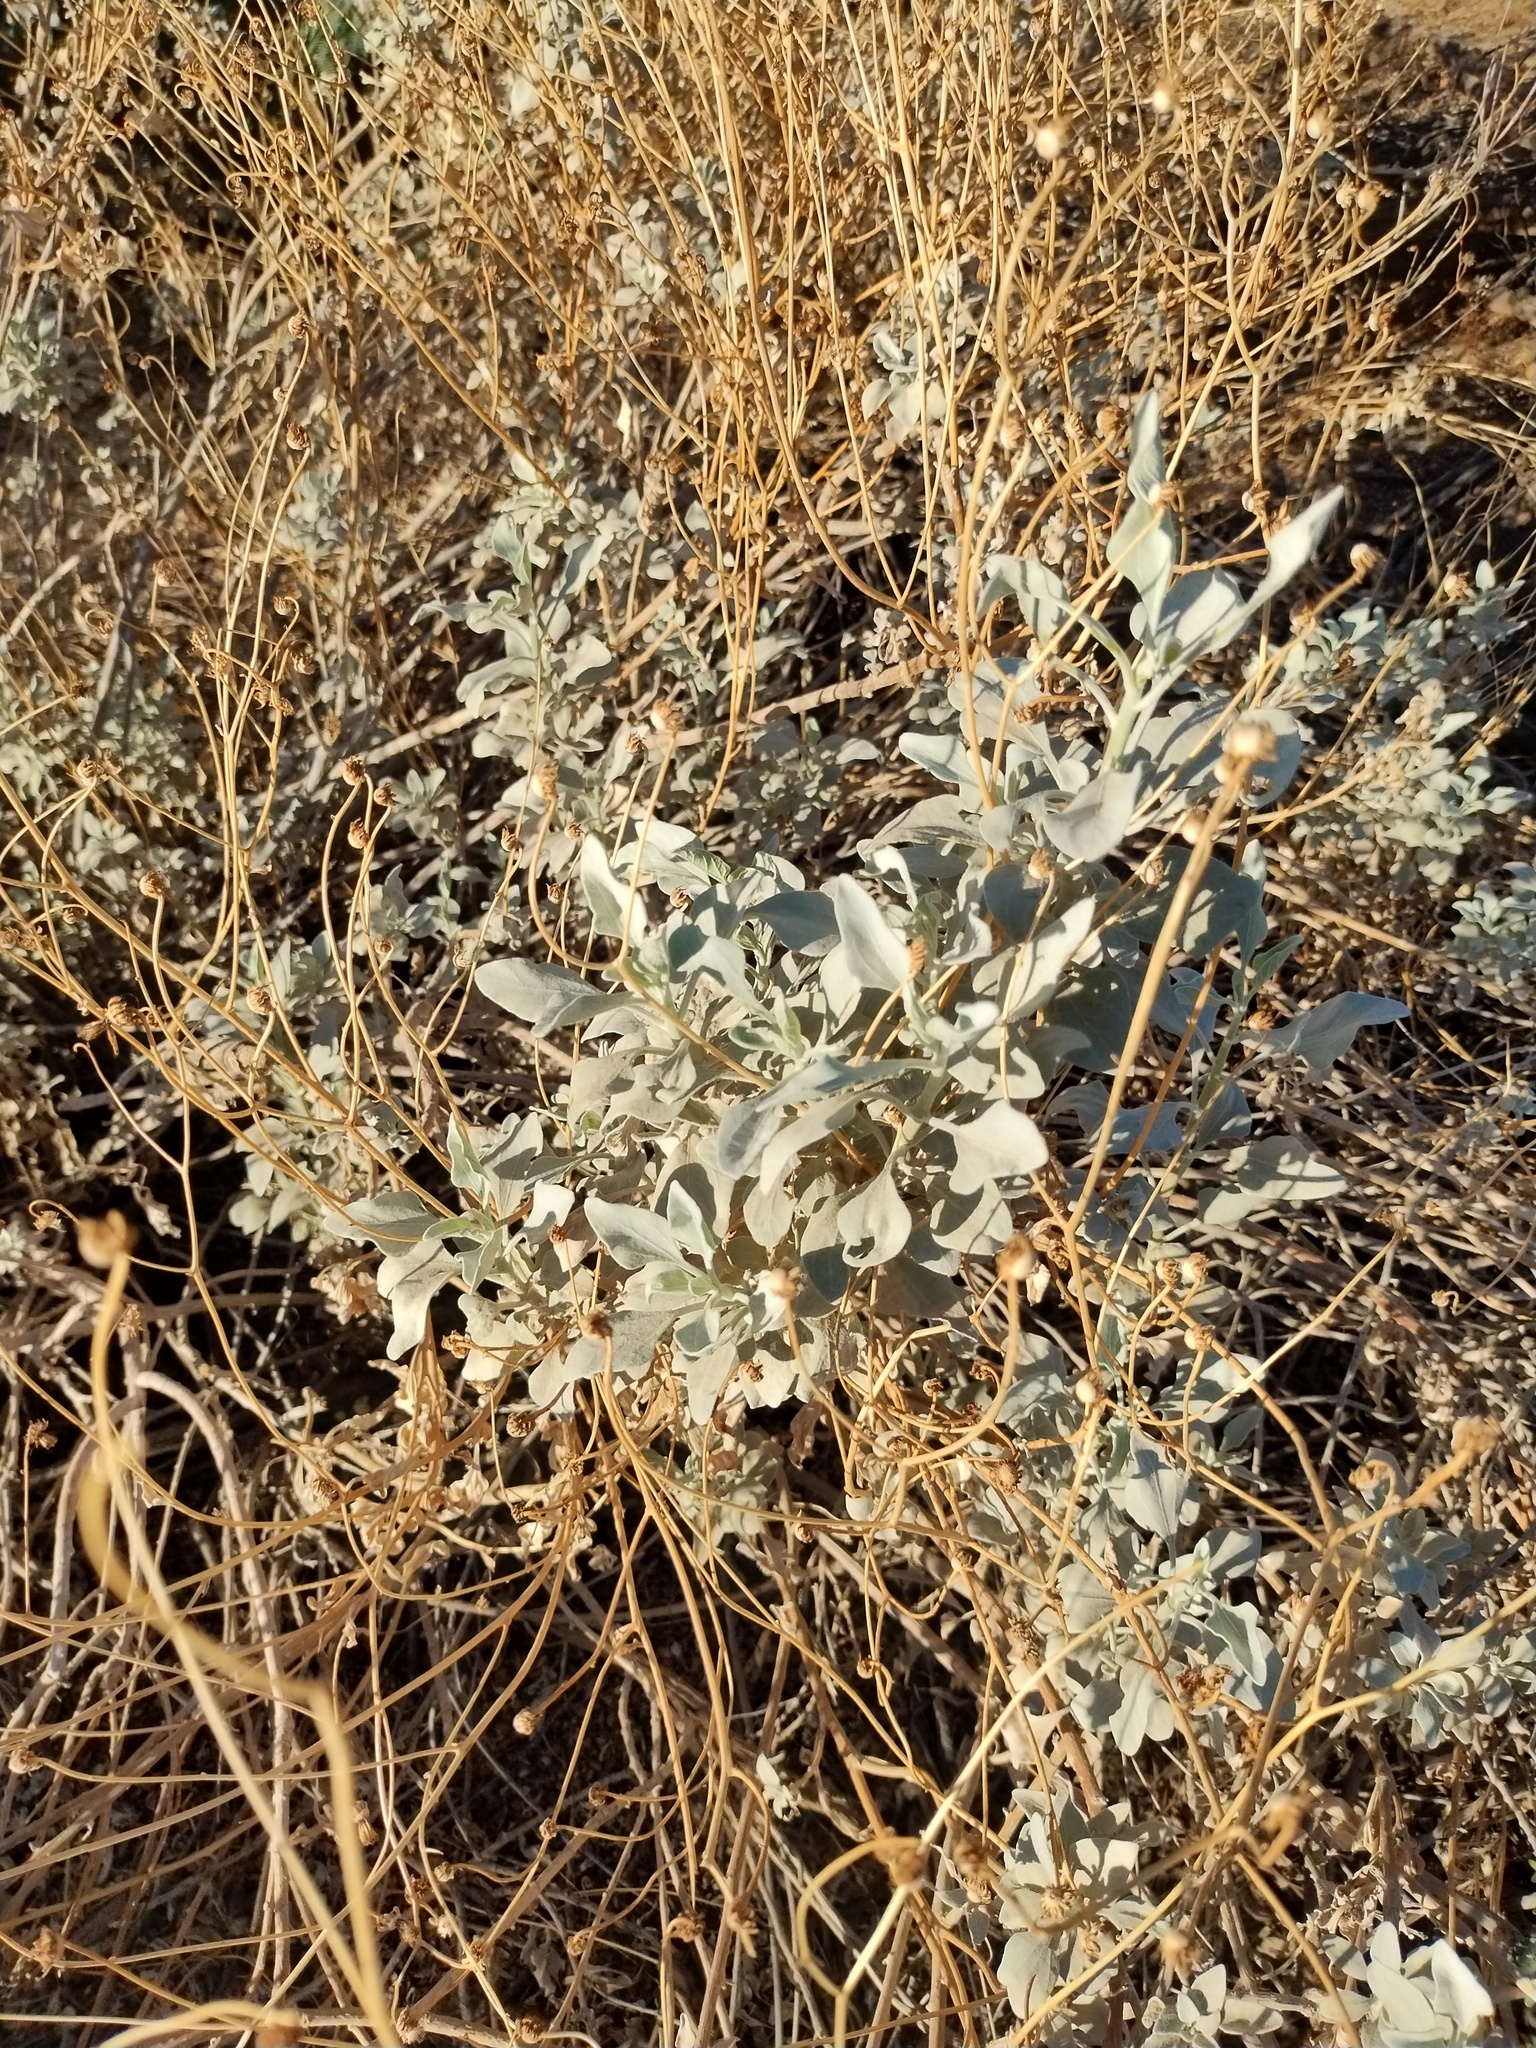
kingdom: Plantae
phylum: Tracheophyta
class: Magnoliopsida
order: Asterales
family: Asteraceae
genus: Encelia
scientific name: Encelia farinosa
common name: Brittlebush
